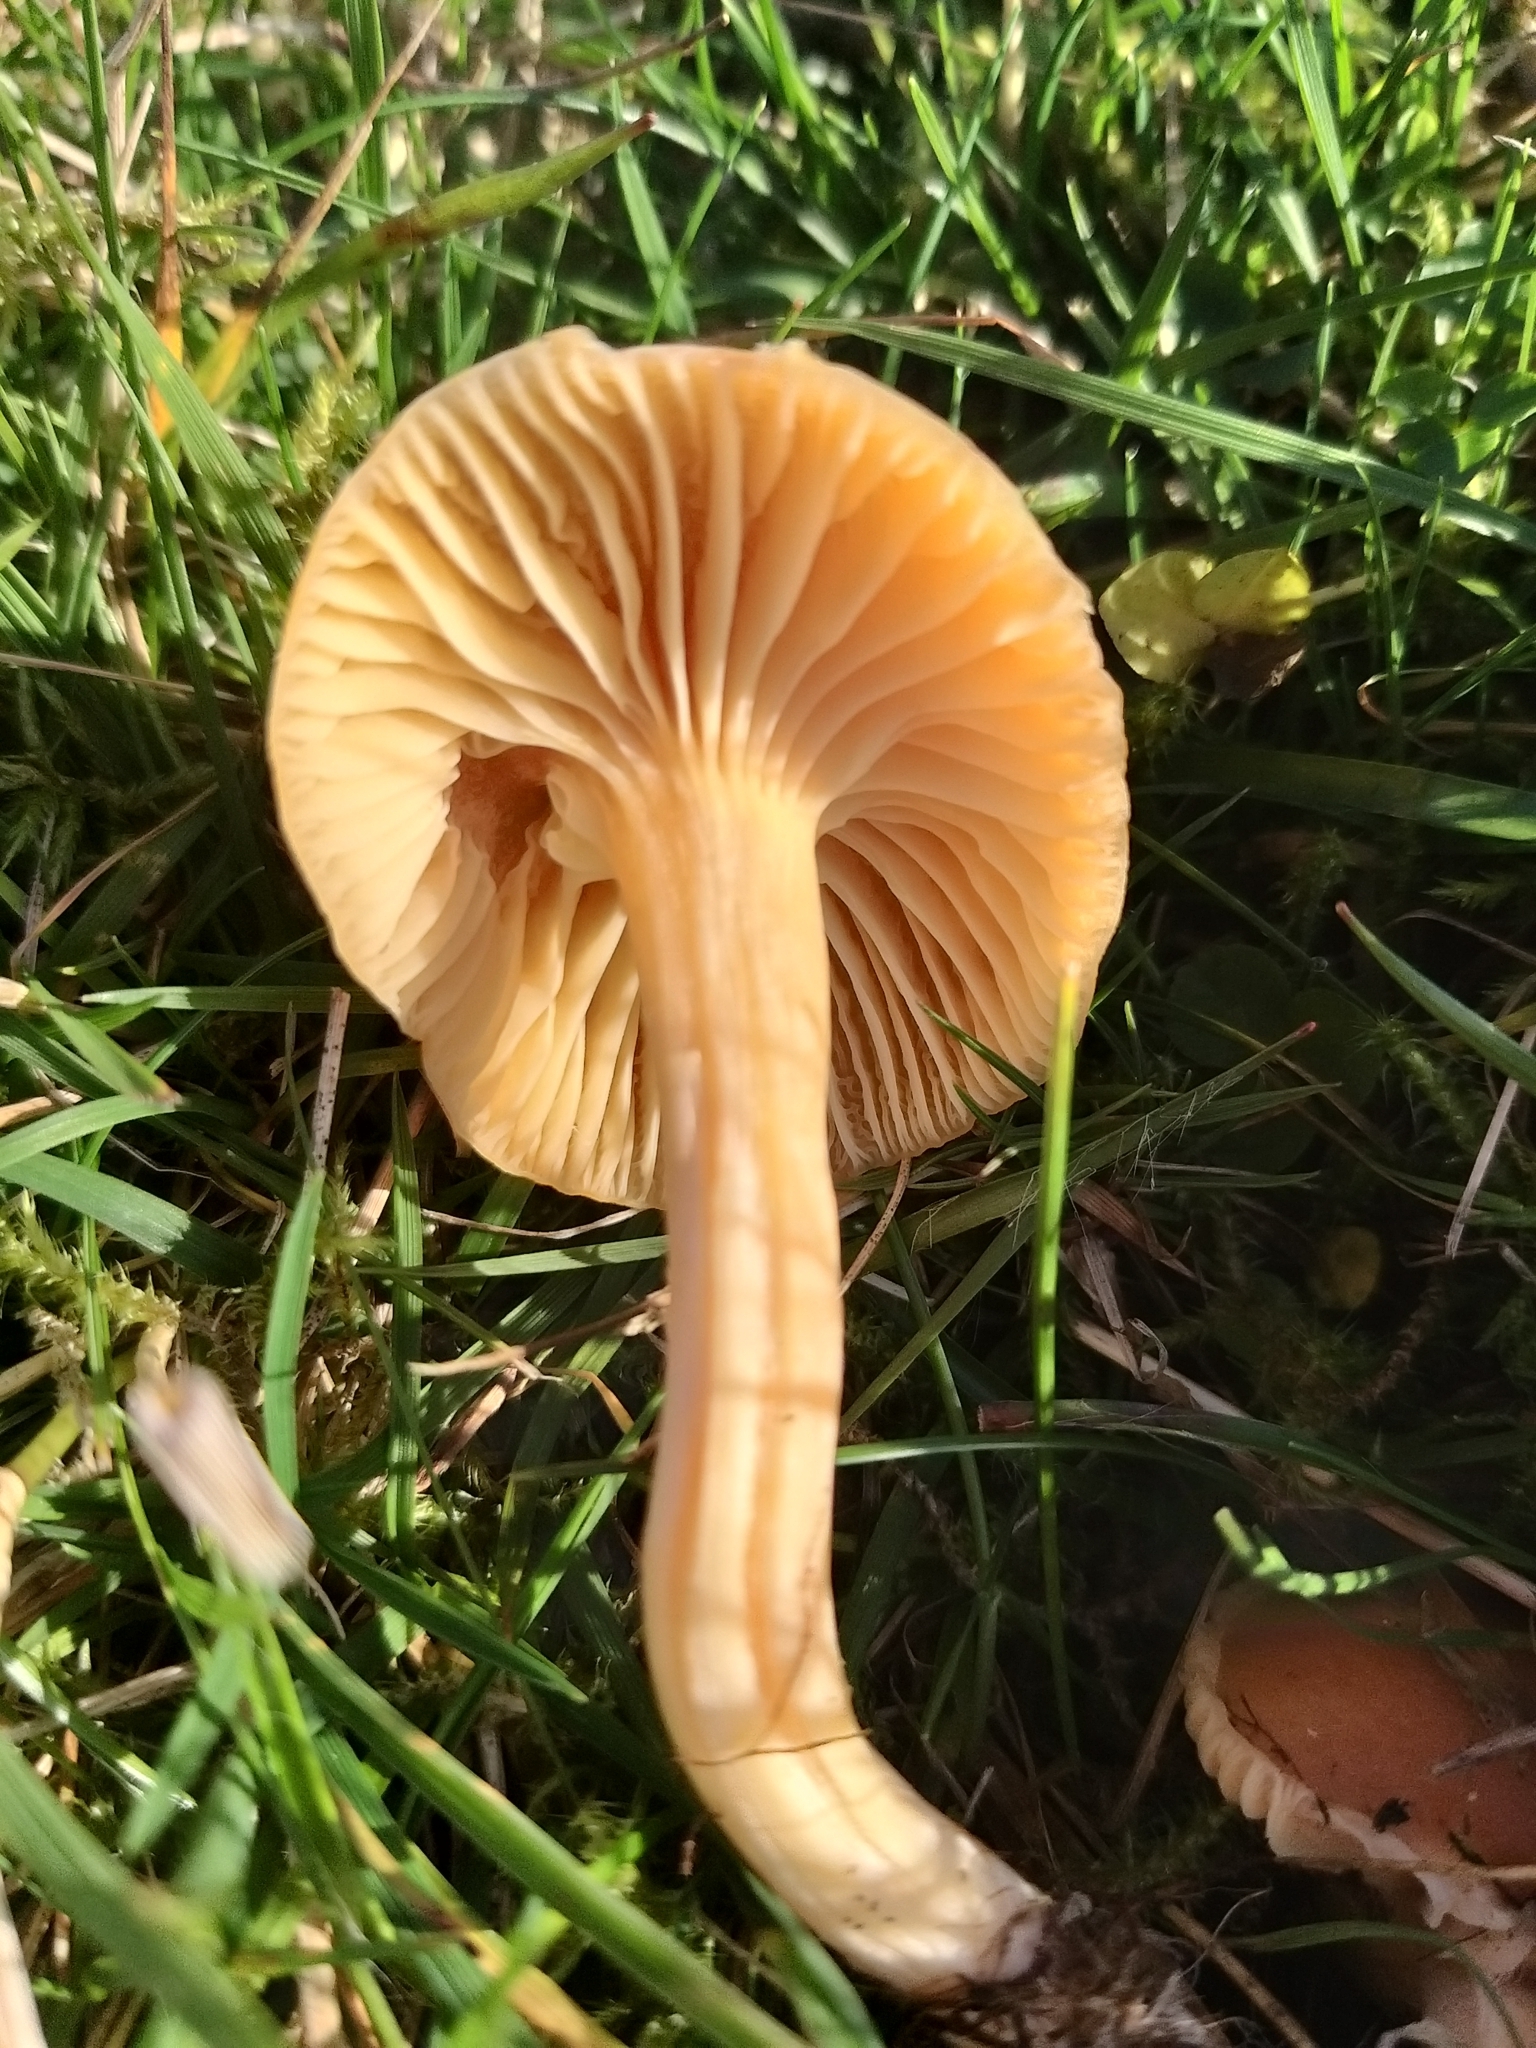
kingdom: Fungi
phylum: Basidiomycota
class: Agaricomycetes
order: Agaricales
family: Hygrophoraceae
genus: Cuphophyllus
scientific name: Cuphophyllus pratensis
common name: Meadow waxcap
